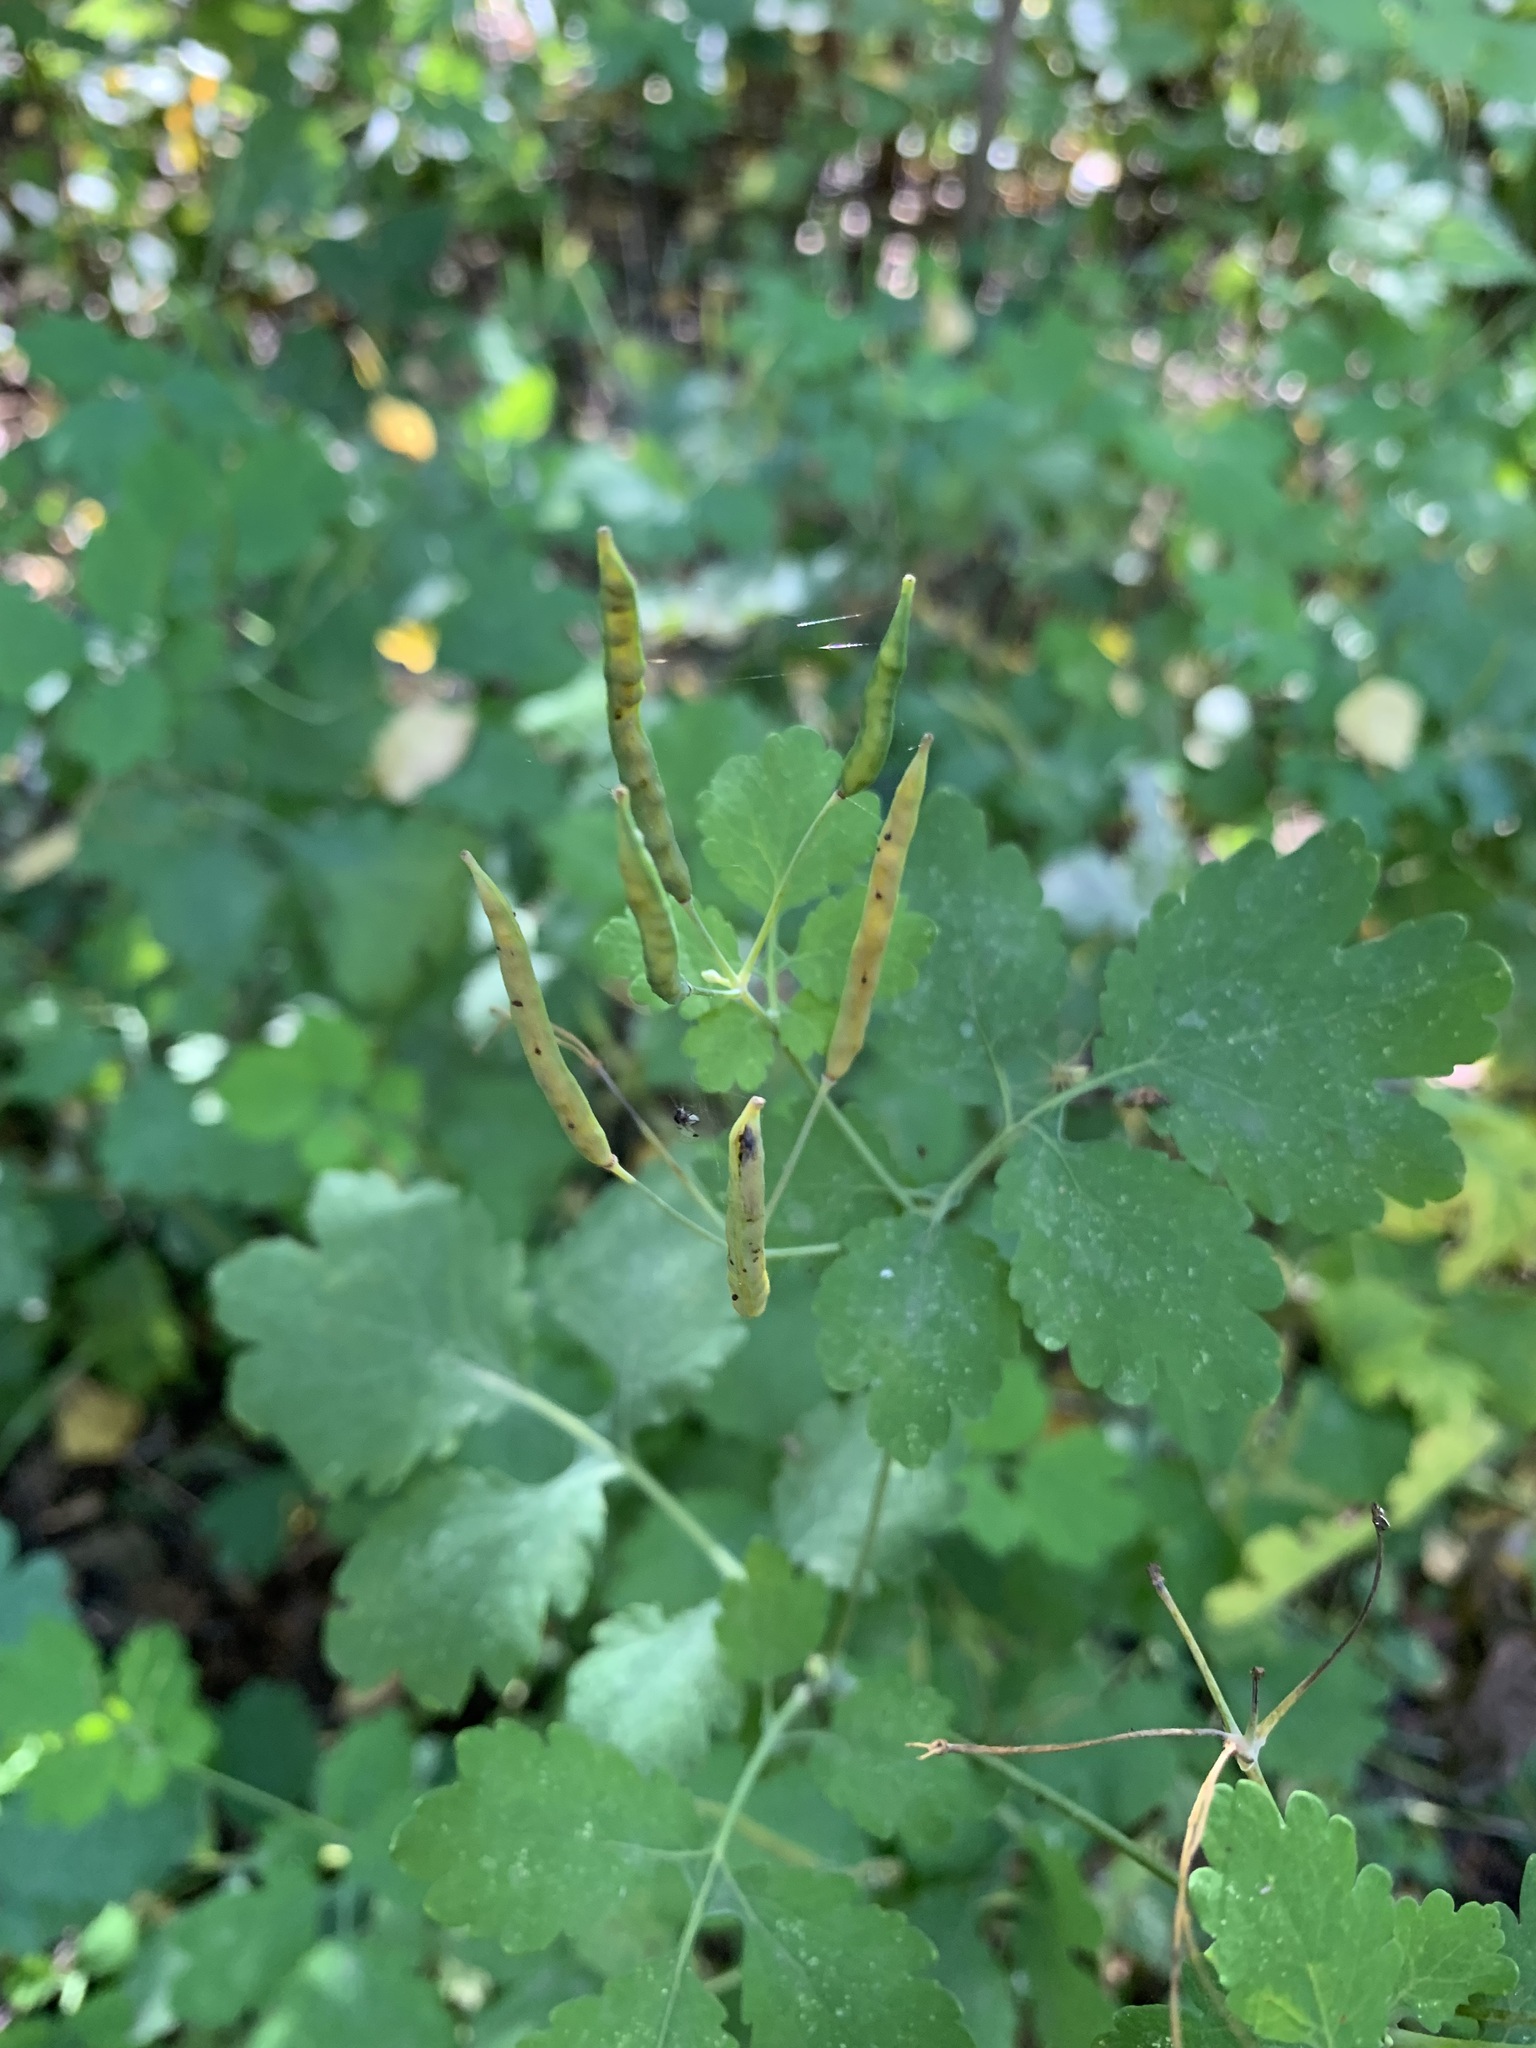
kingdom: Plantae
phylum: Tracheophyta
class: Magnoliopsida
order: Ranunculales
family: Papaveraceae
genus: Chelidonium
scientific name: Chelidonium majus
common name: Greater celandine
